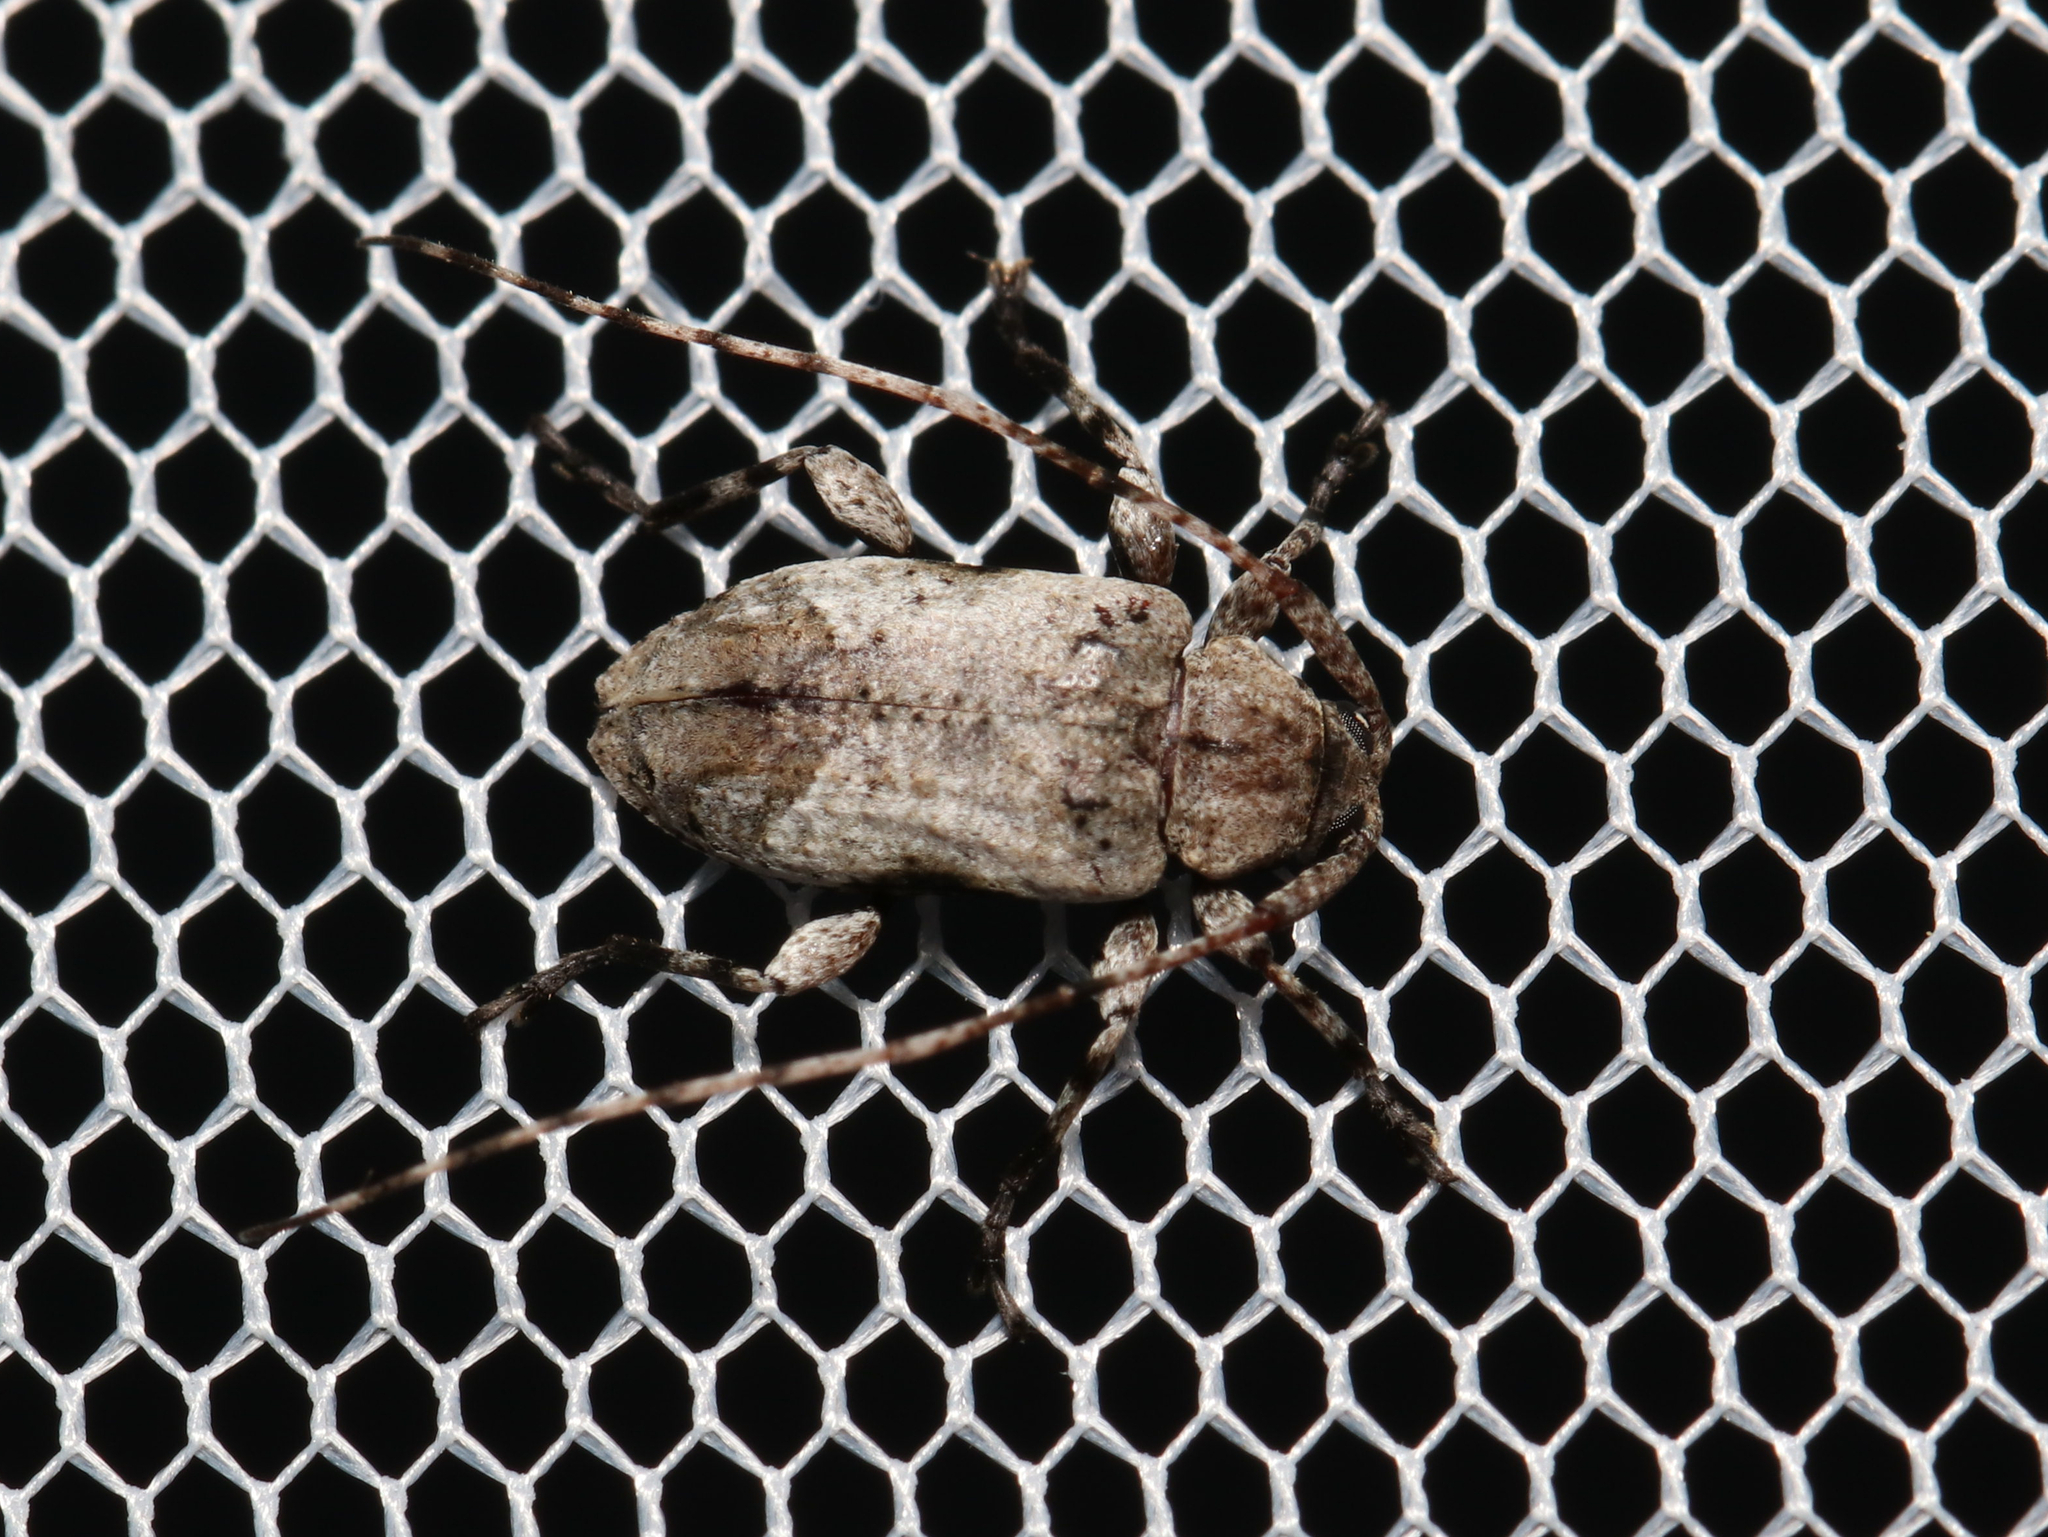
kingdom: Animalia
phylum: Arthropoda
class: Insecta
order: Coleoptera
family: Cerambycidae
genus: Styloleptus
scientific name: Styloleptus biustus
